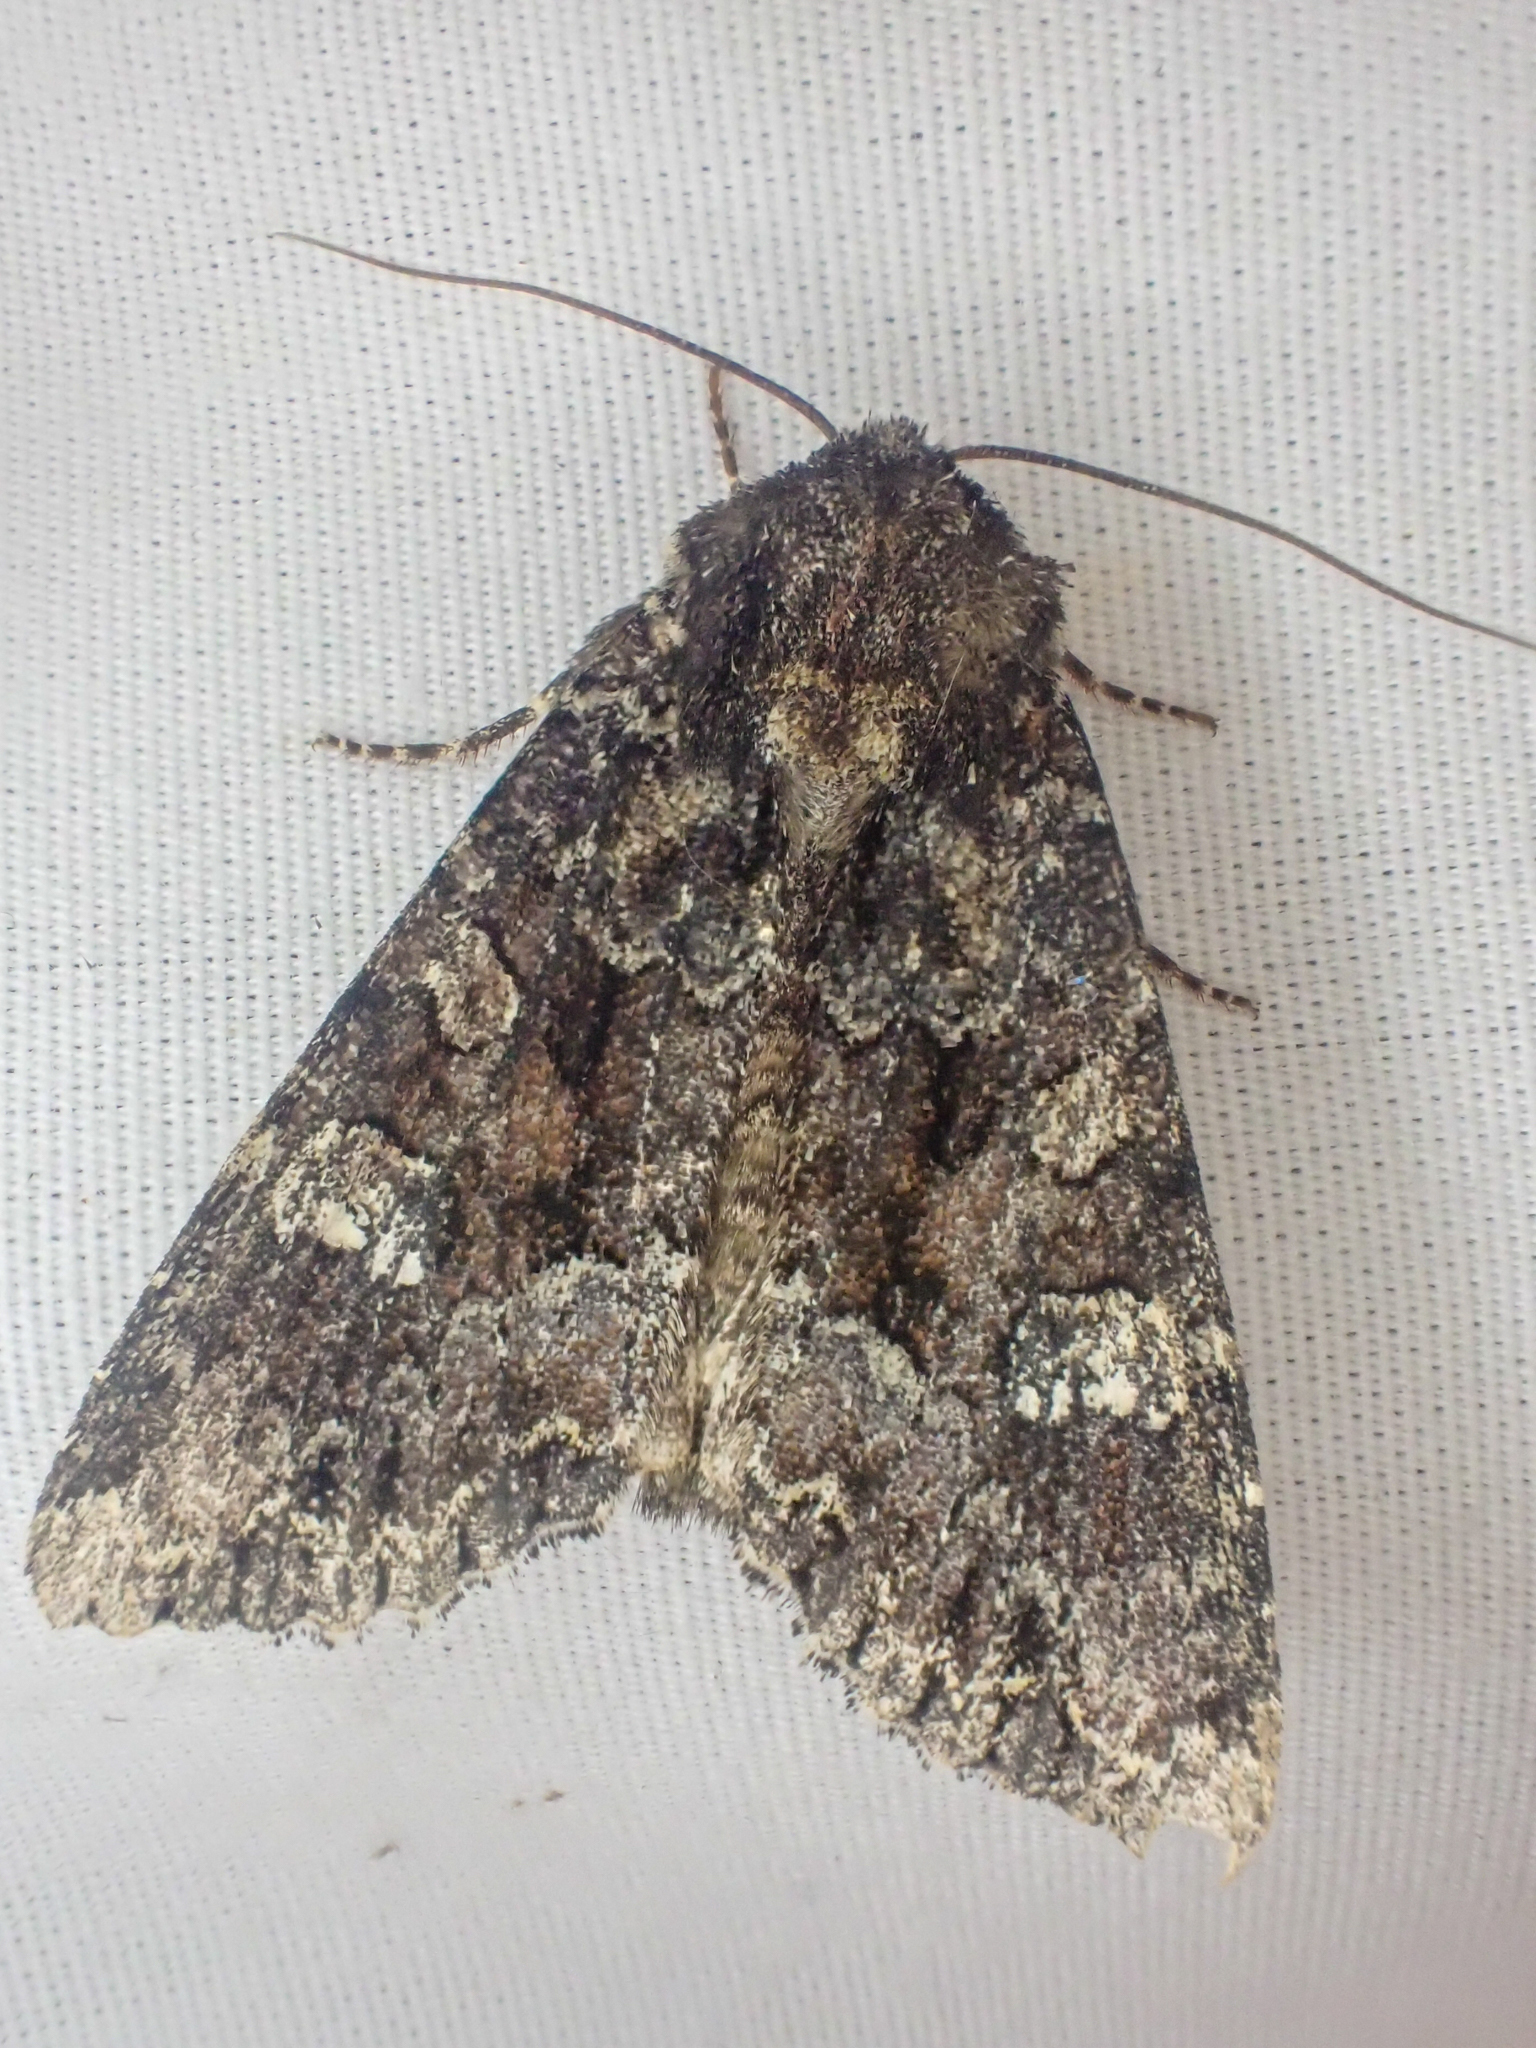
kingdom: Animalia
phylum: Arthropoda
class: Insecta
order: Lepidoptera
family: Noctuidae
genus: Apamea
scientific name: Apamea amputatrix
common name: Yellow-headed cutworm moth
